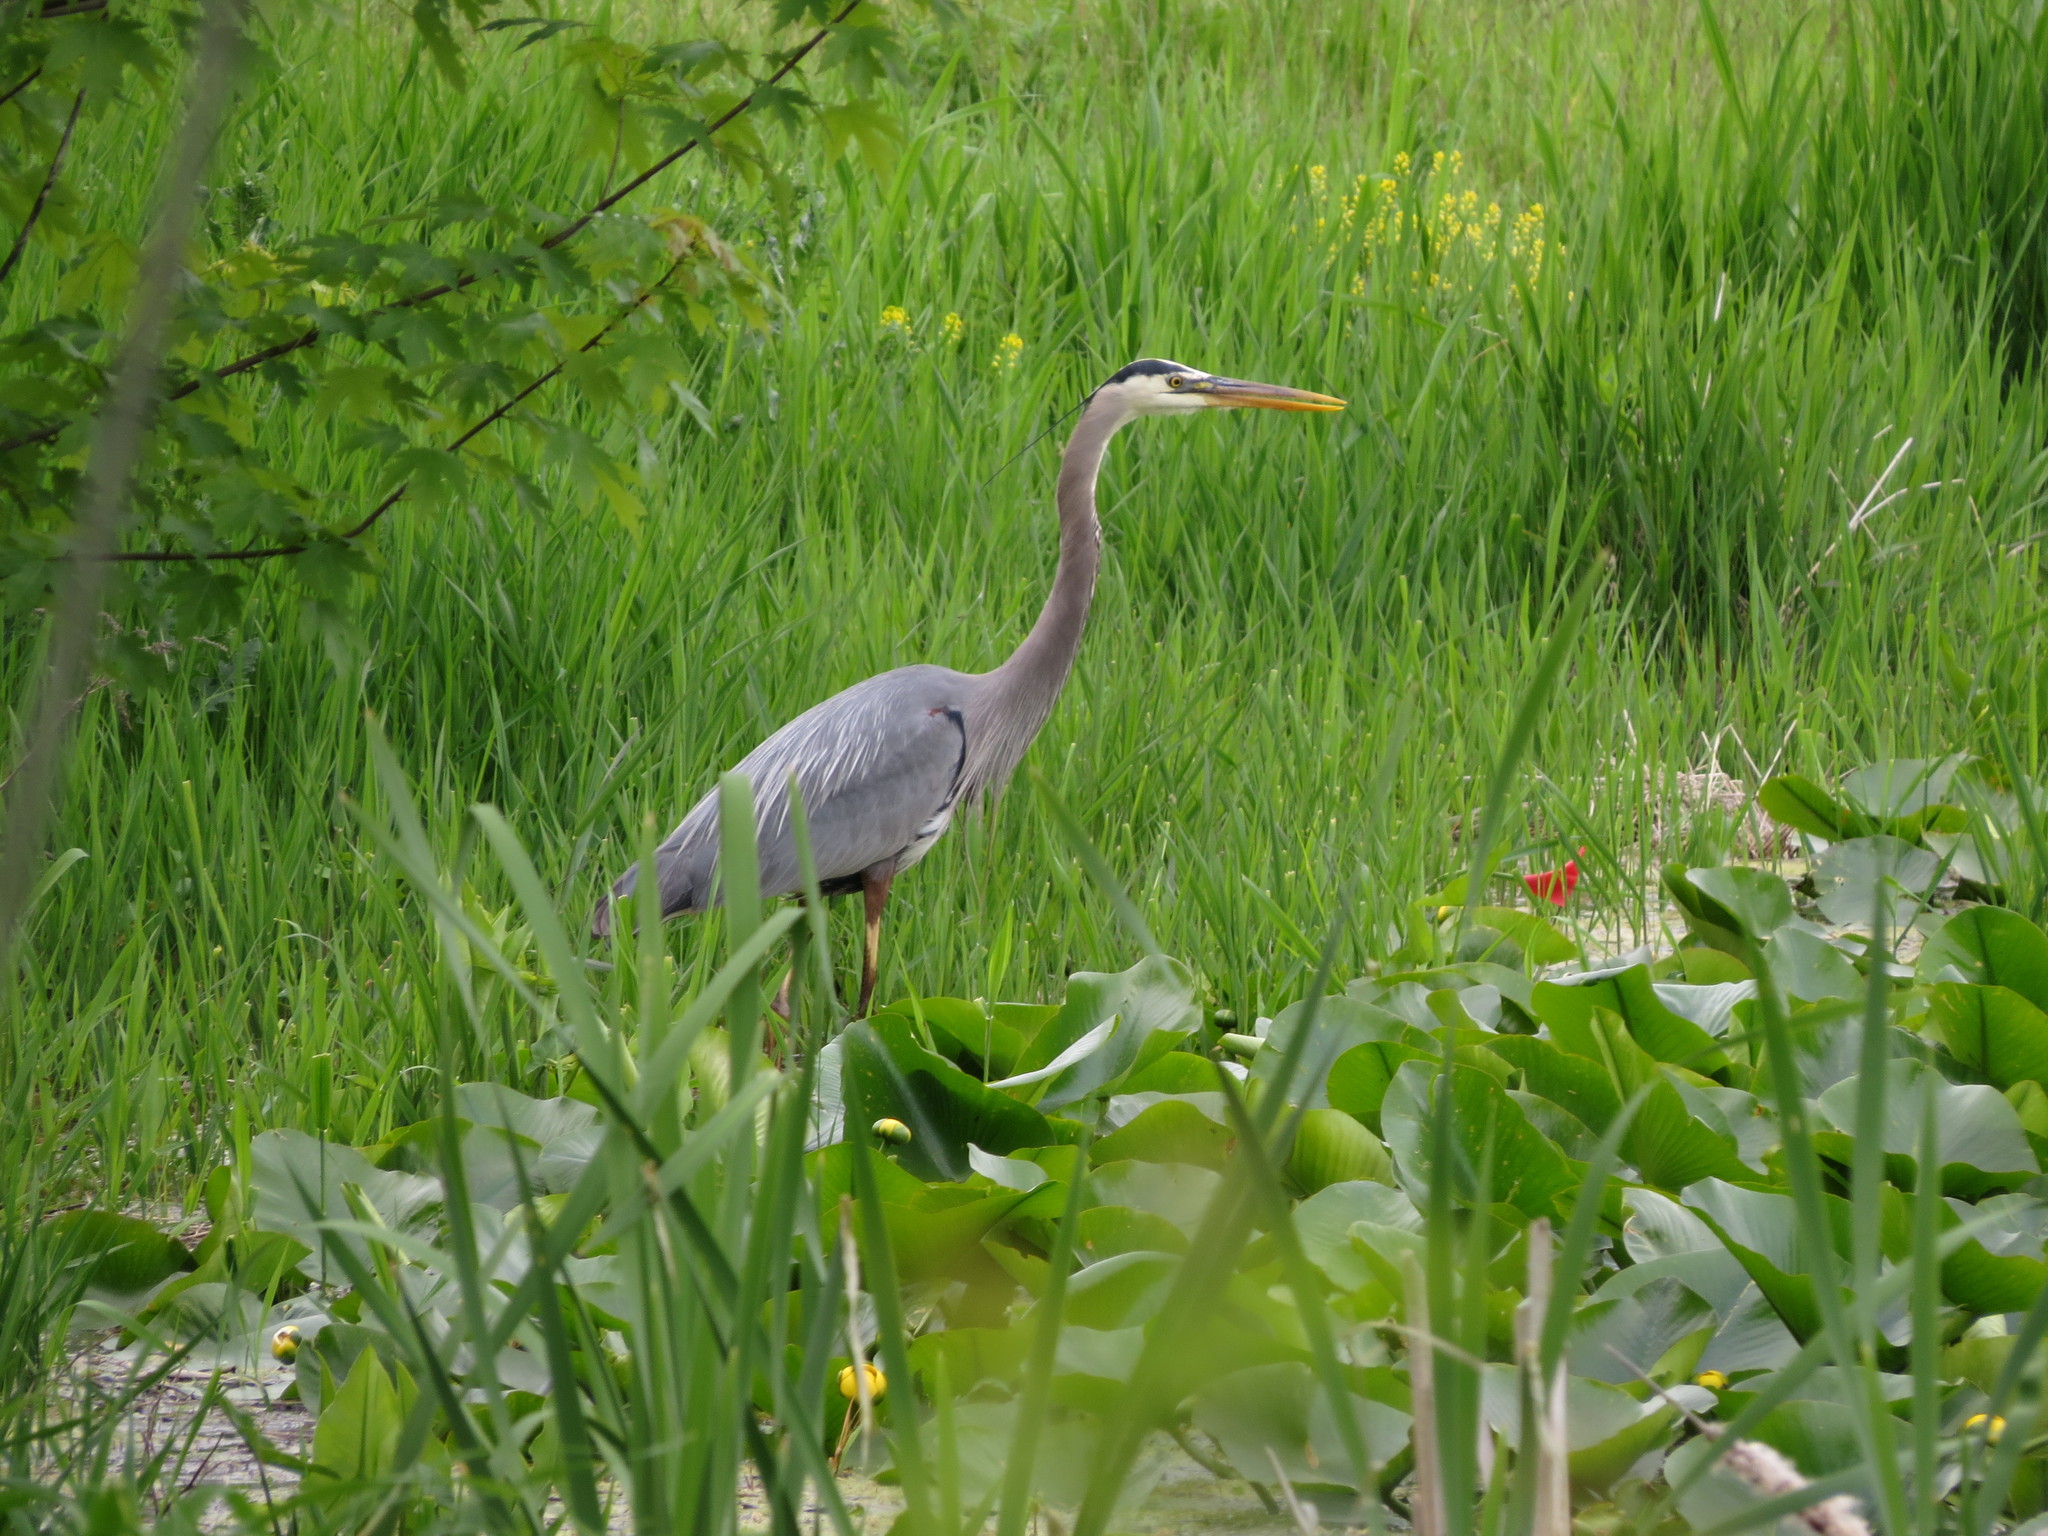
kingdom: Animalia
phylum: Chordata
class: Aves
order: Pelecaniformes
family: Ardeidae
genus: Ardea
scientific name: Ardea herodias
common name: Great blue heron
